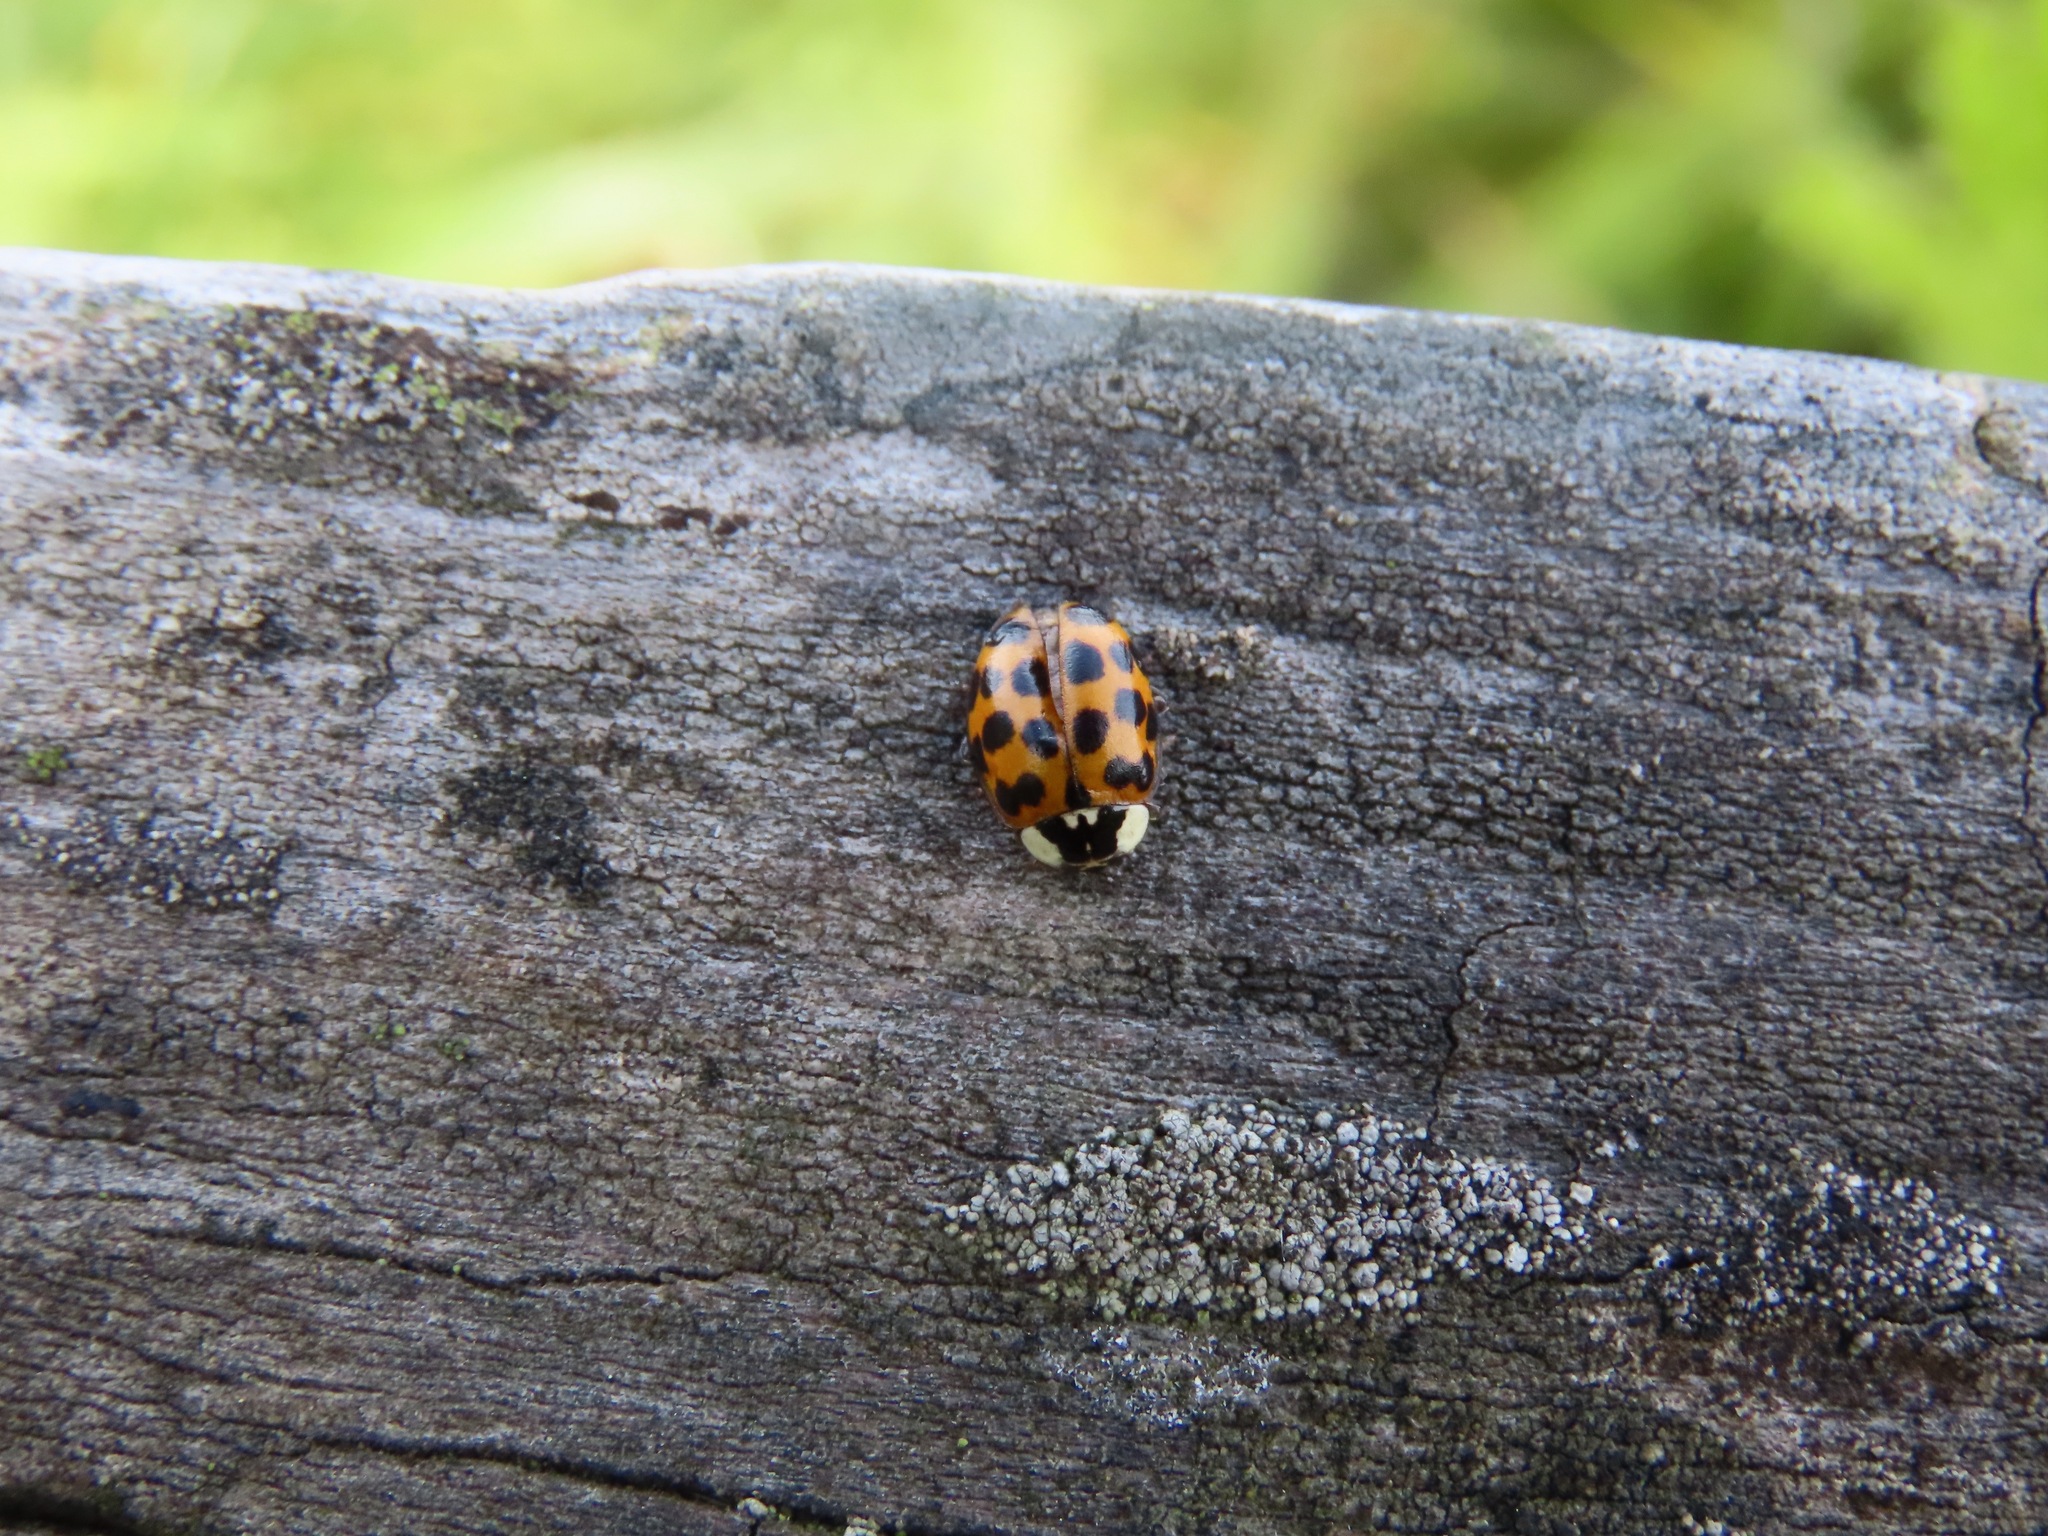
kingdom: Animalia
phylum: Arthropoda
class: Insecta
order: Coleoptera
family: Coccinellidae
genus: Harmonia
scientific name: Harmonia axyridis
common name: Harlequin ladybird
